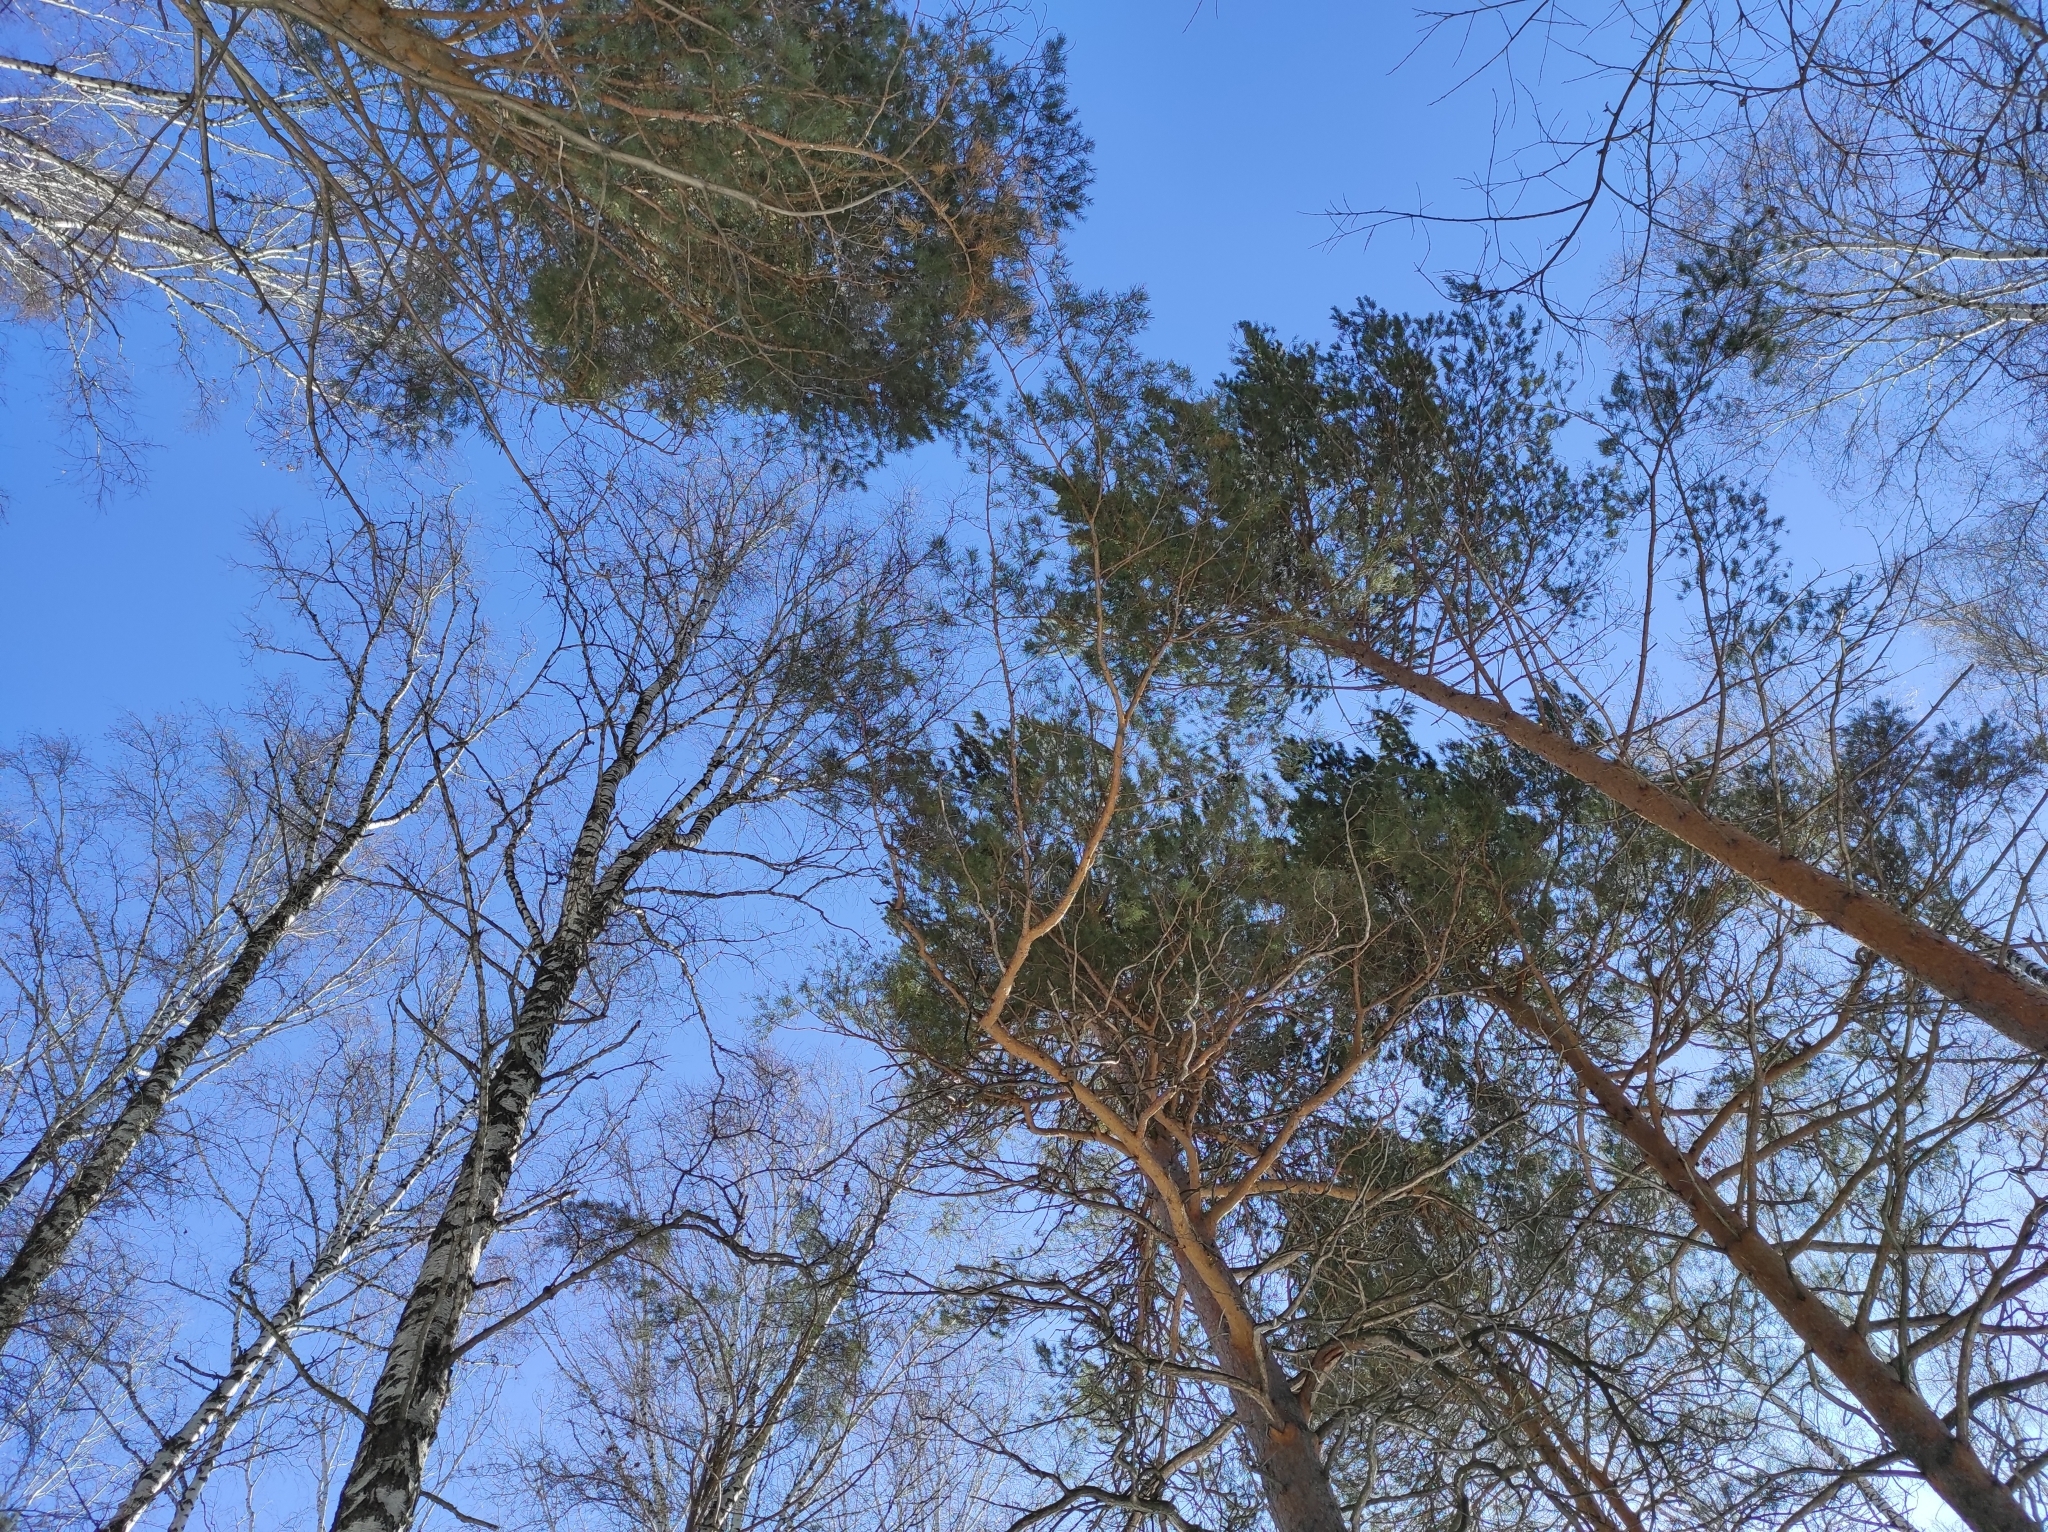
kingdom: Plantae
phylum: Tracheophyta
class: Pinopsida
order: Pinales
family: Pinaceae
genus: Pinus
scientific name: Pinus sylvestris
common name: Scots pine
